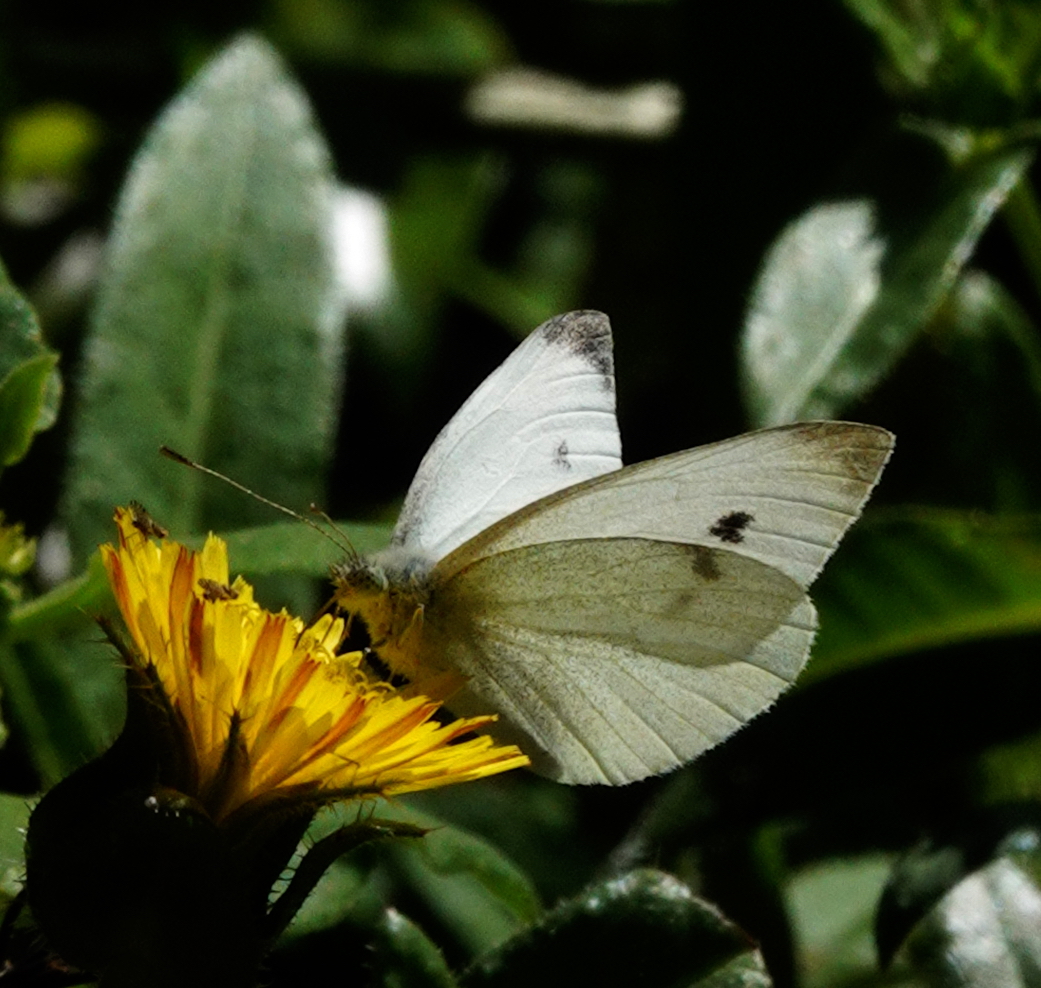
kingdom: Animalia
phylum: Arthropoda
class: Insecta
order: Lepidoptera
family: Pieridae
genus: Pieris
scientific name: Pieris rapae
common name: Small white
